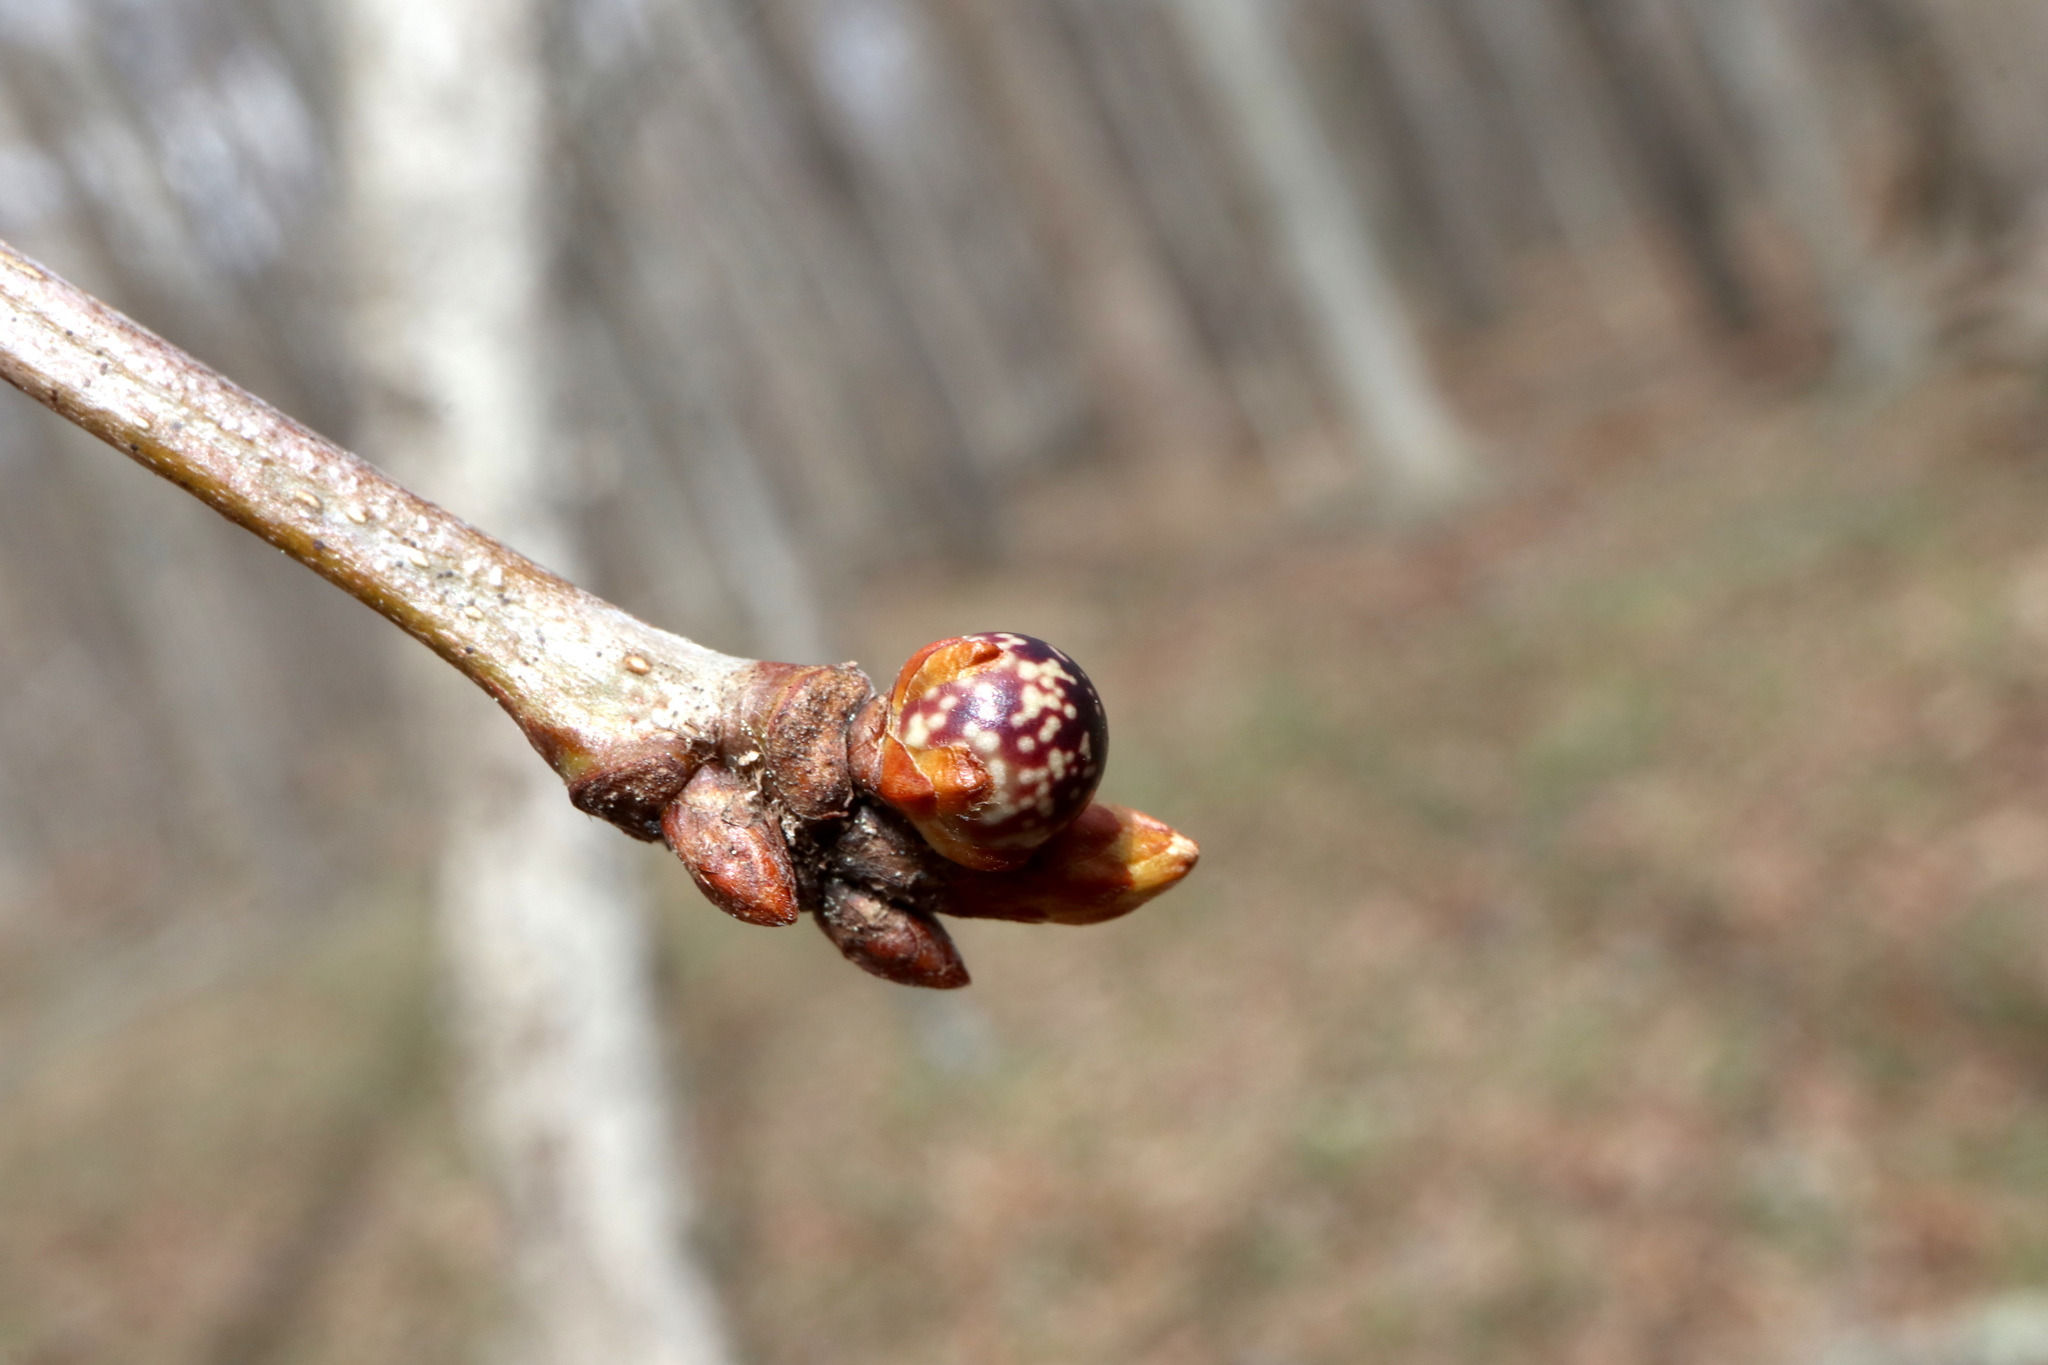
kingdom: Animalia
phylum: Arthropoda
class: Insecta
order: Hymenoptera
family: Cynipidae
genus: Andricus
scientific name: Andricus
